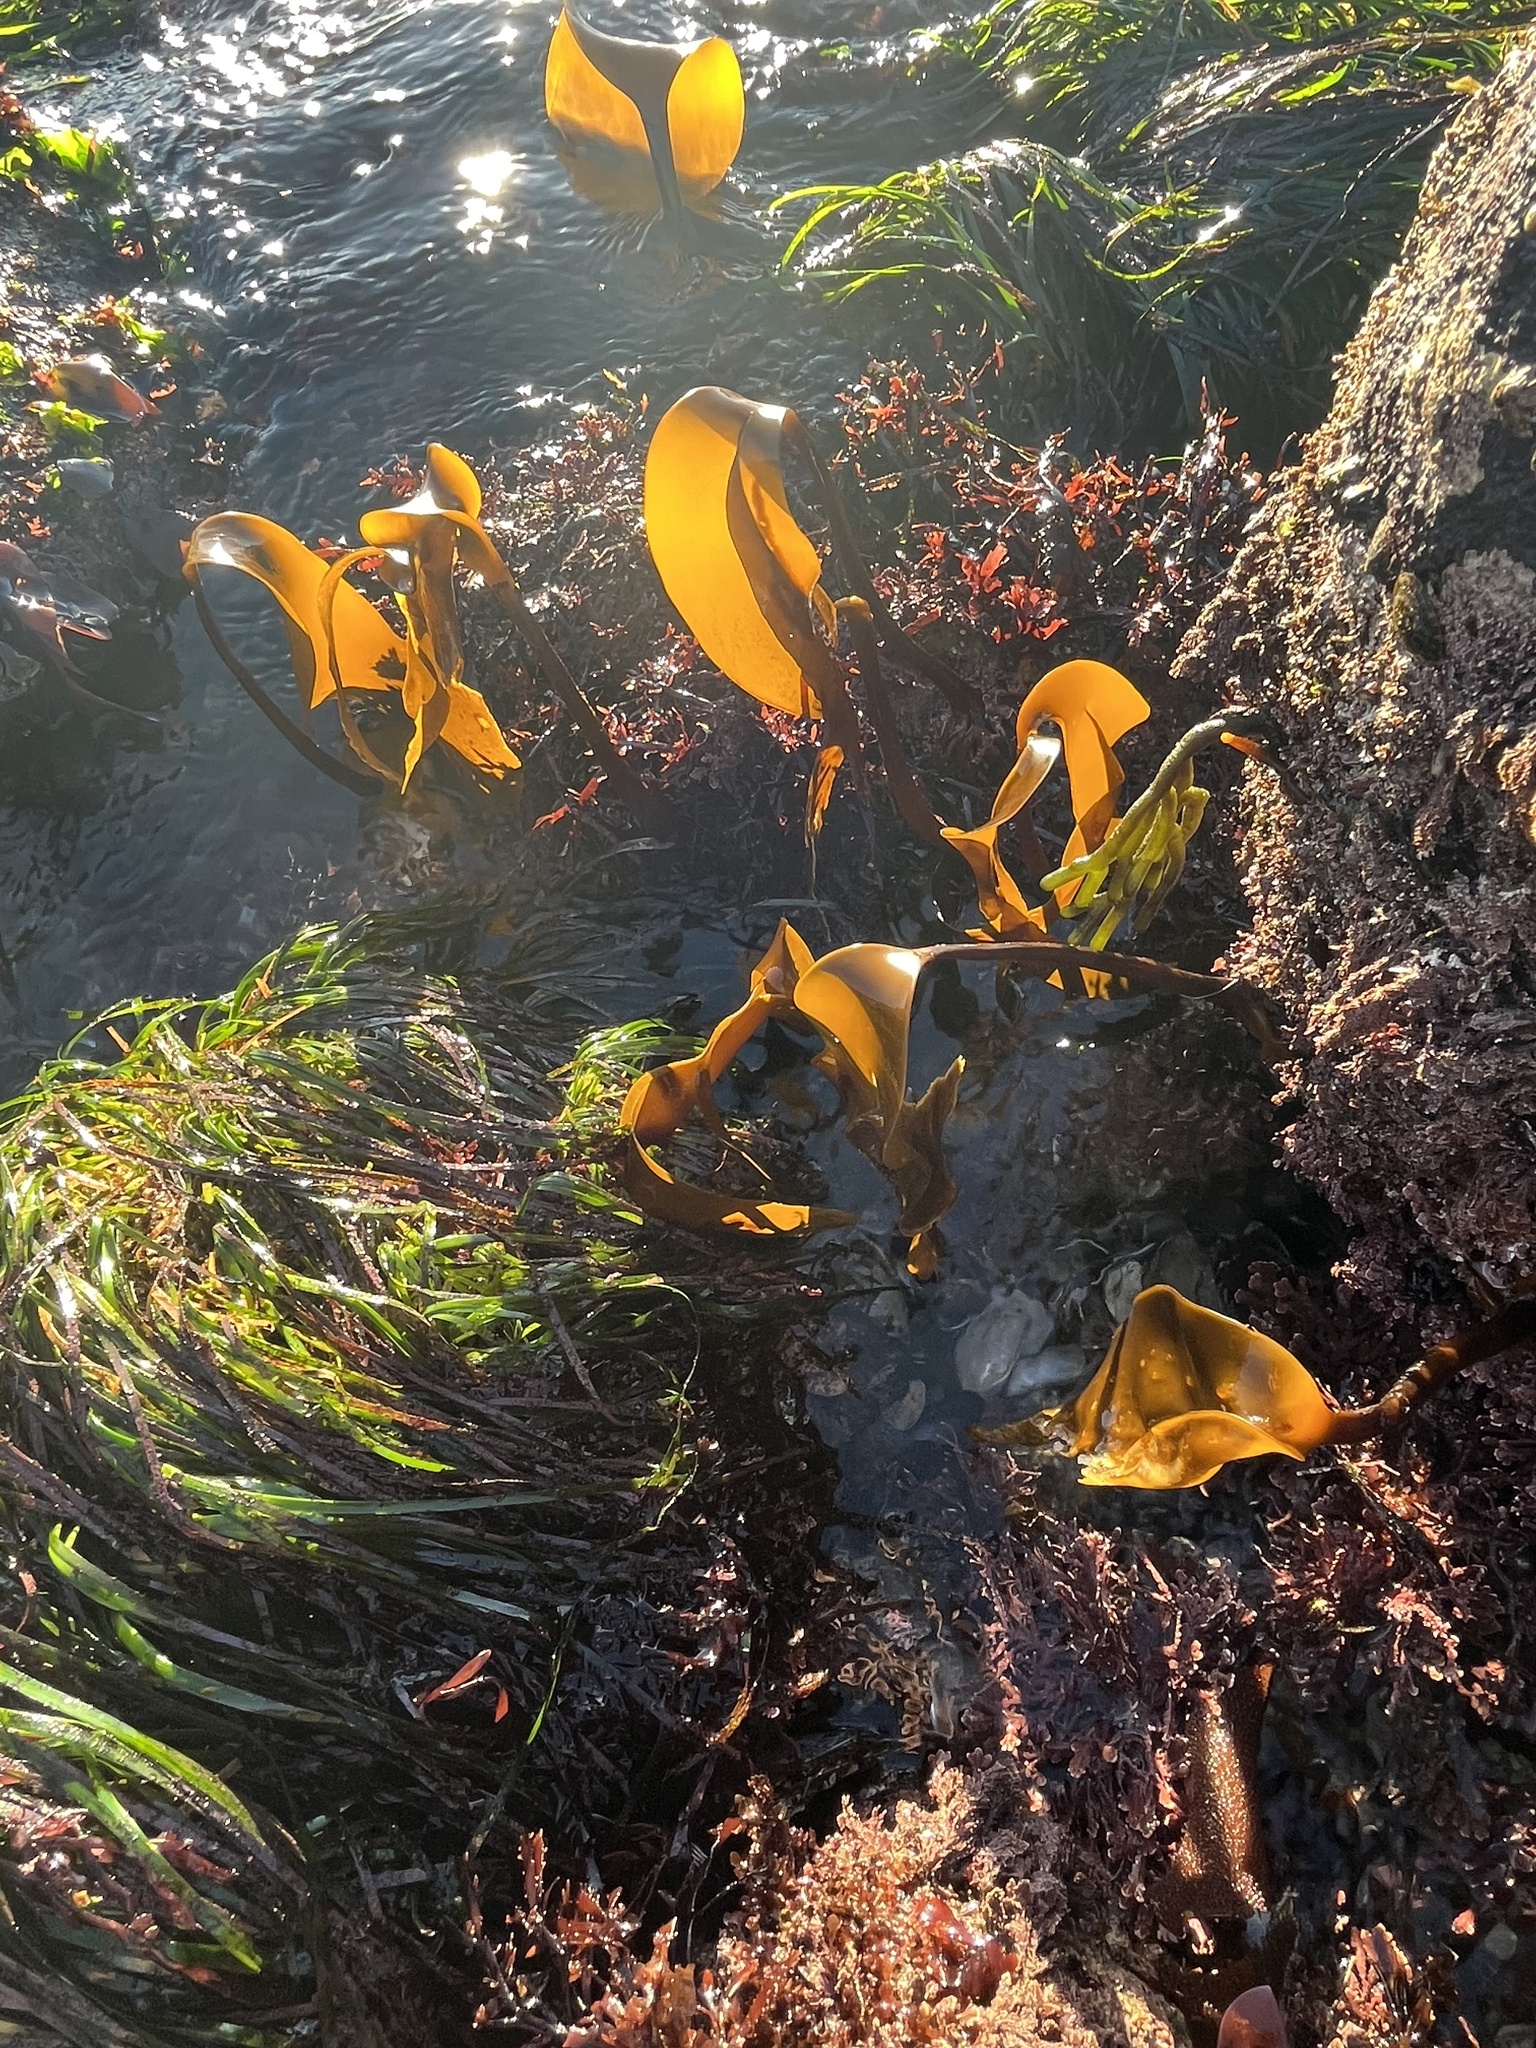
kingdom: Chromista
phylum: Ochrophyta
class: Phaeophyceae
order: Laminariales
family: Laminariaceae
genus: Laminaria
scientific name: Laminaria setchellii
